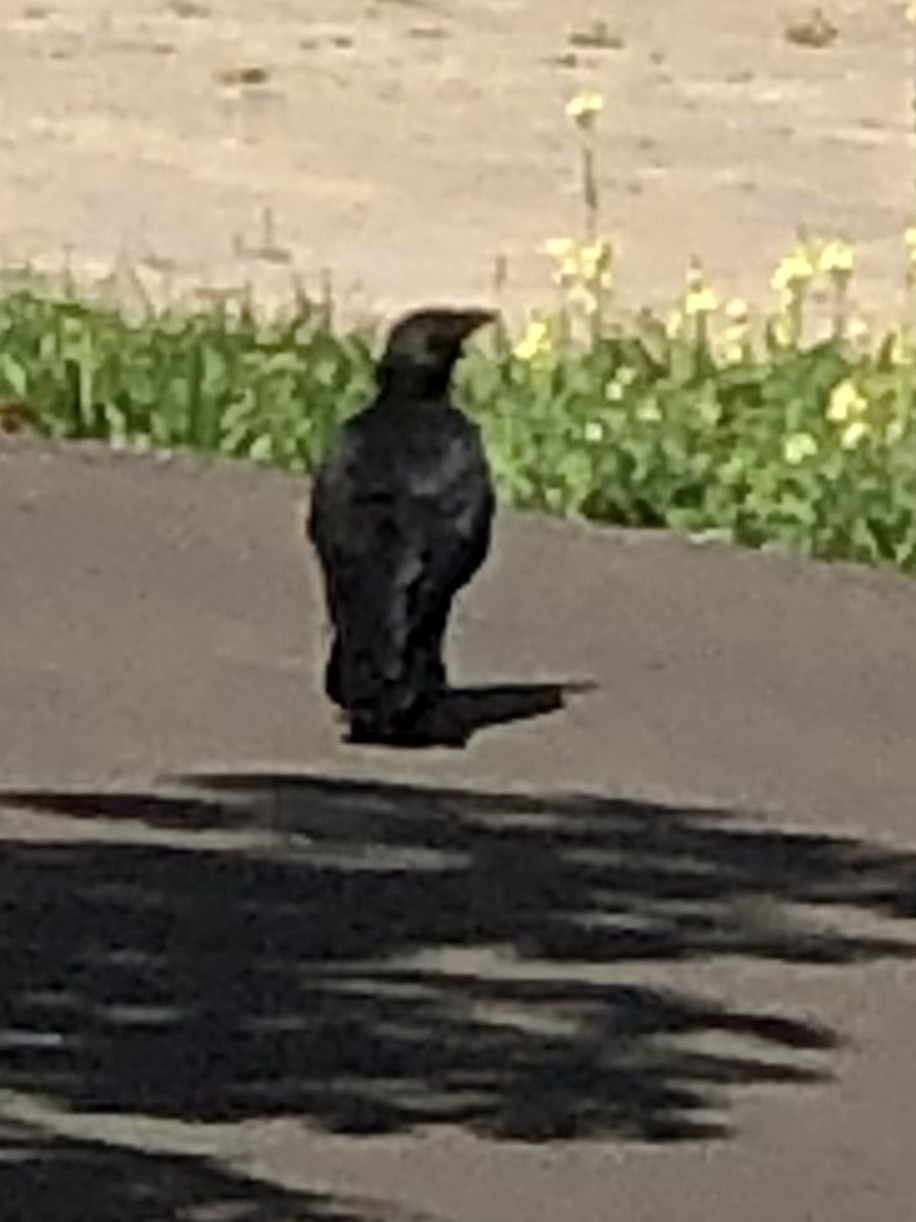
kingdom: Animalia
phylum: Chordata
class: Aves
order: Passeriformes
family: Corvidae
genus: Corvus
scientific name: Corvus brachyrhynchos
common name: American crow
